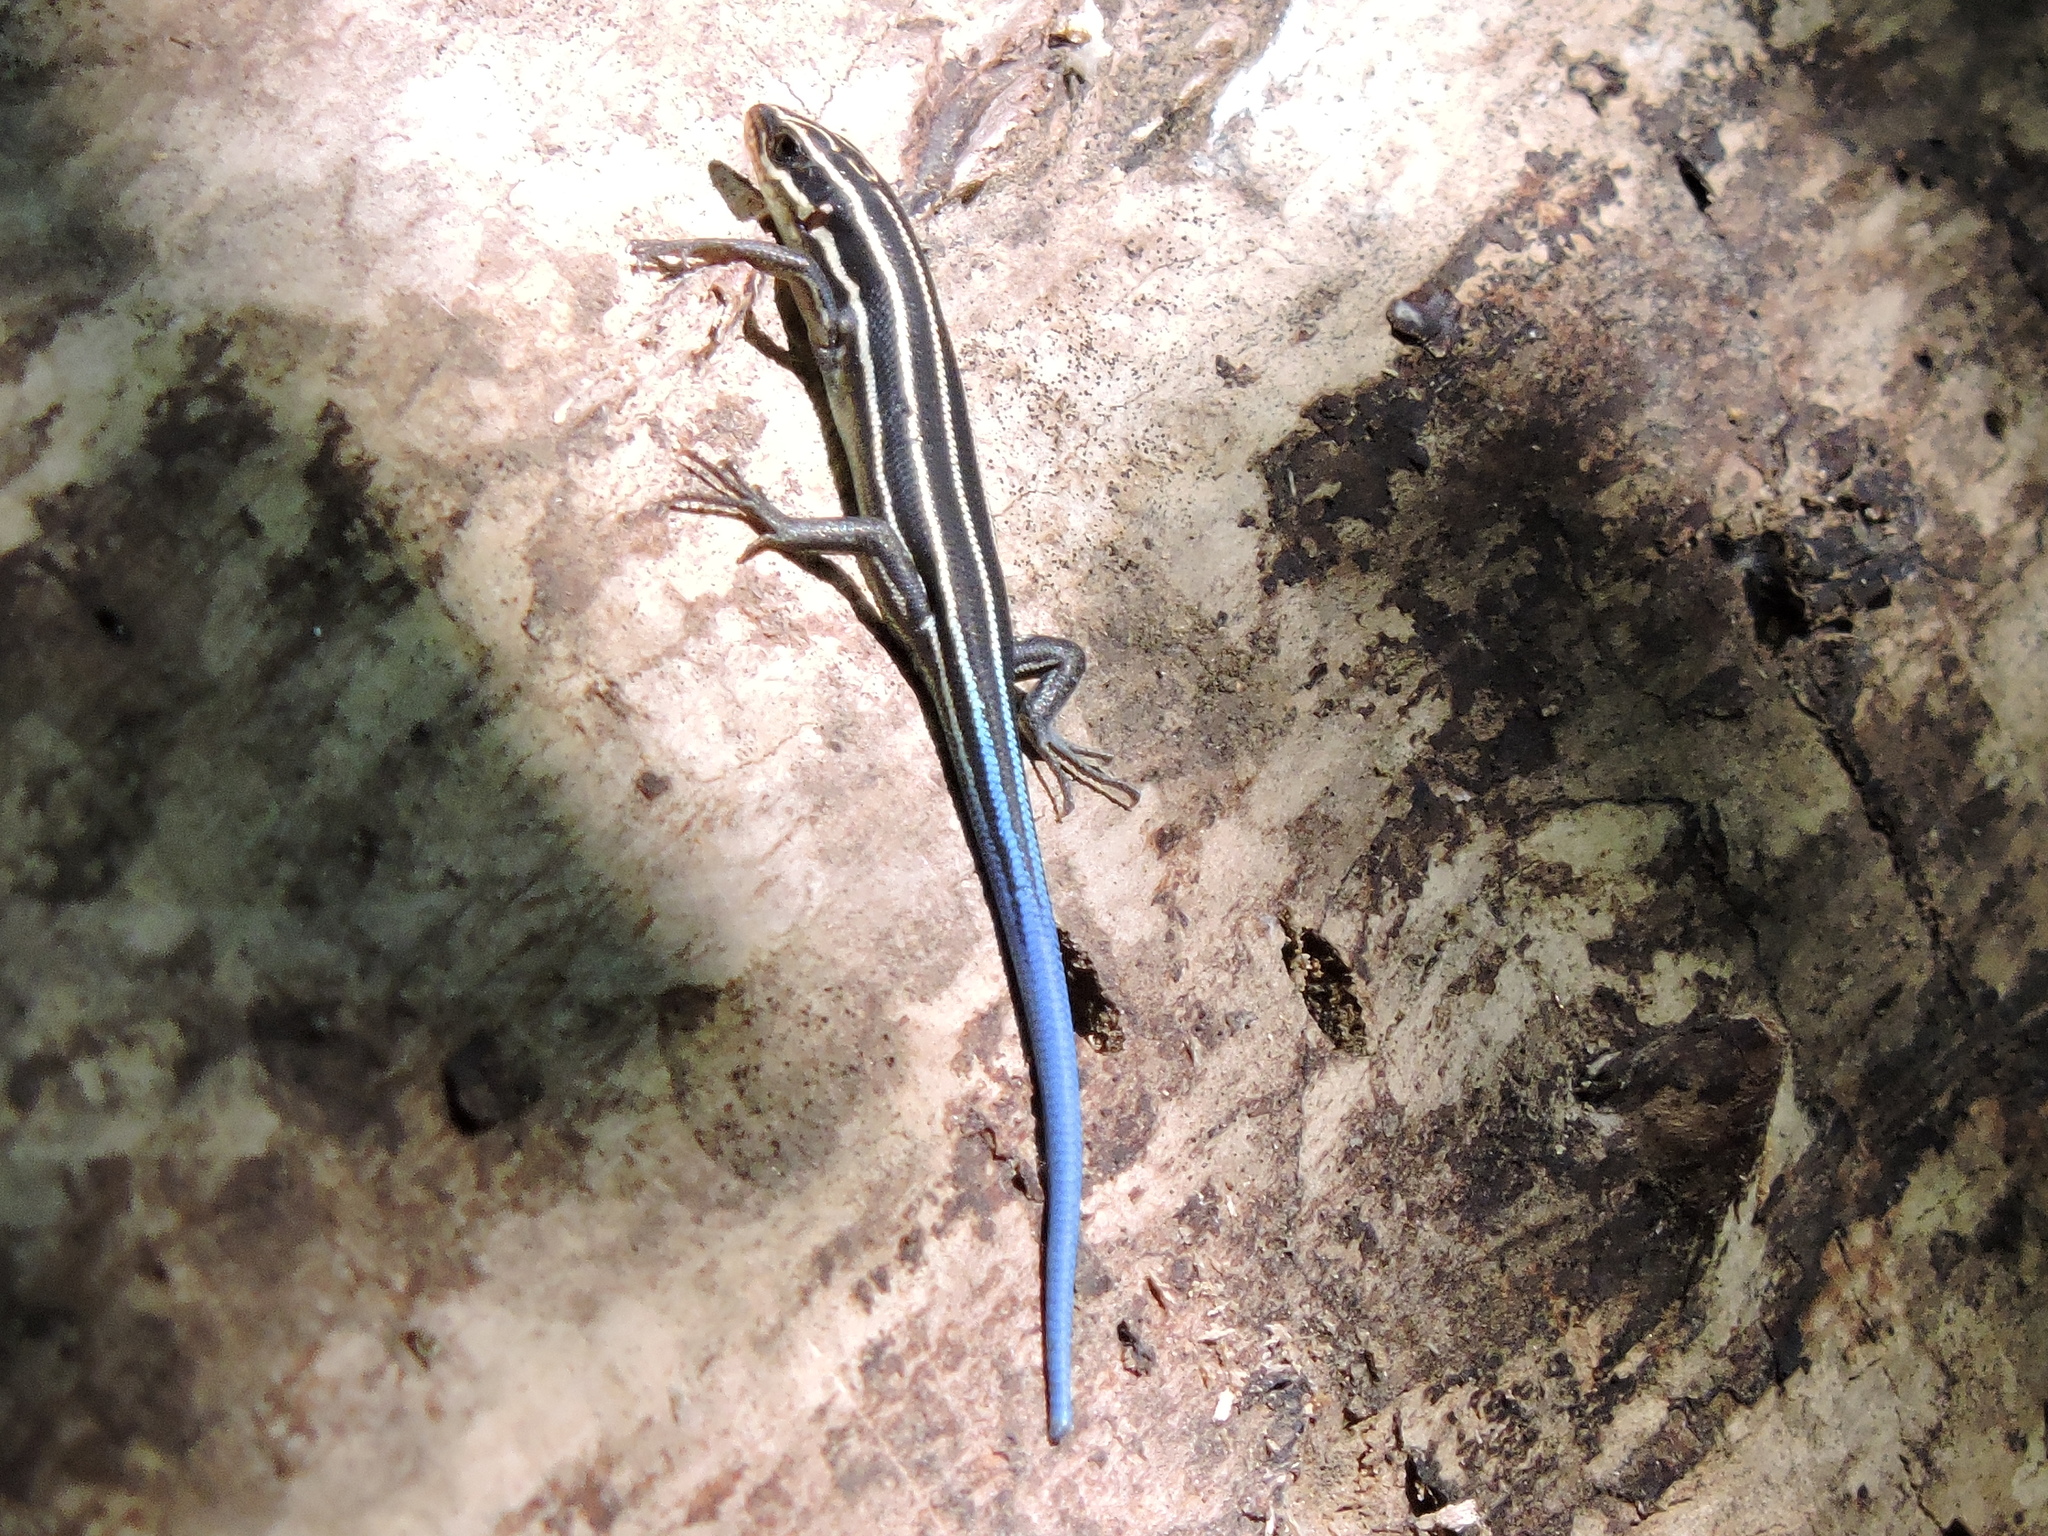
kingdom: Animalia
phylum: Chordata
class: Squamata
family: Scincidae
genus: Plestiodon
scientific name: Plestiodon fasciatus
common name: Five-lined skink
